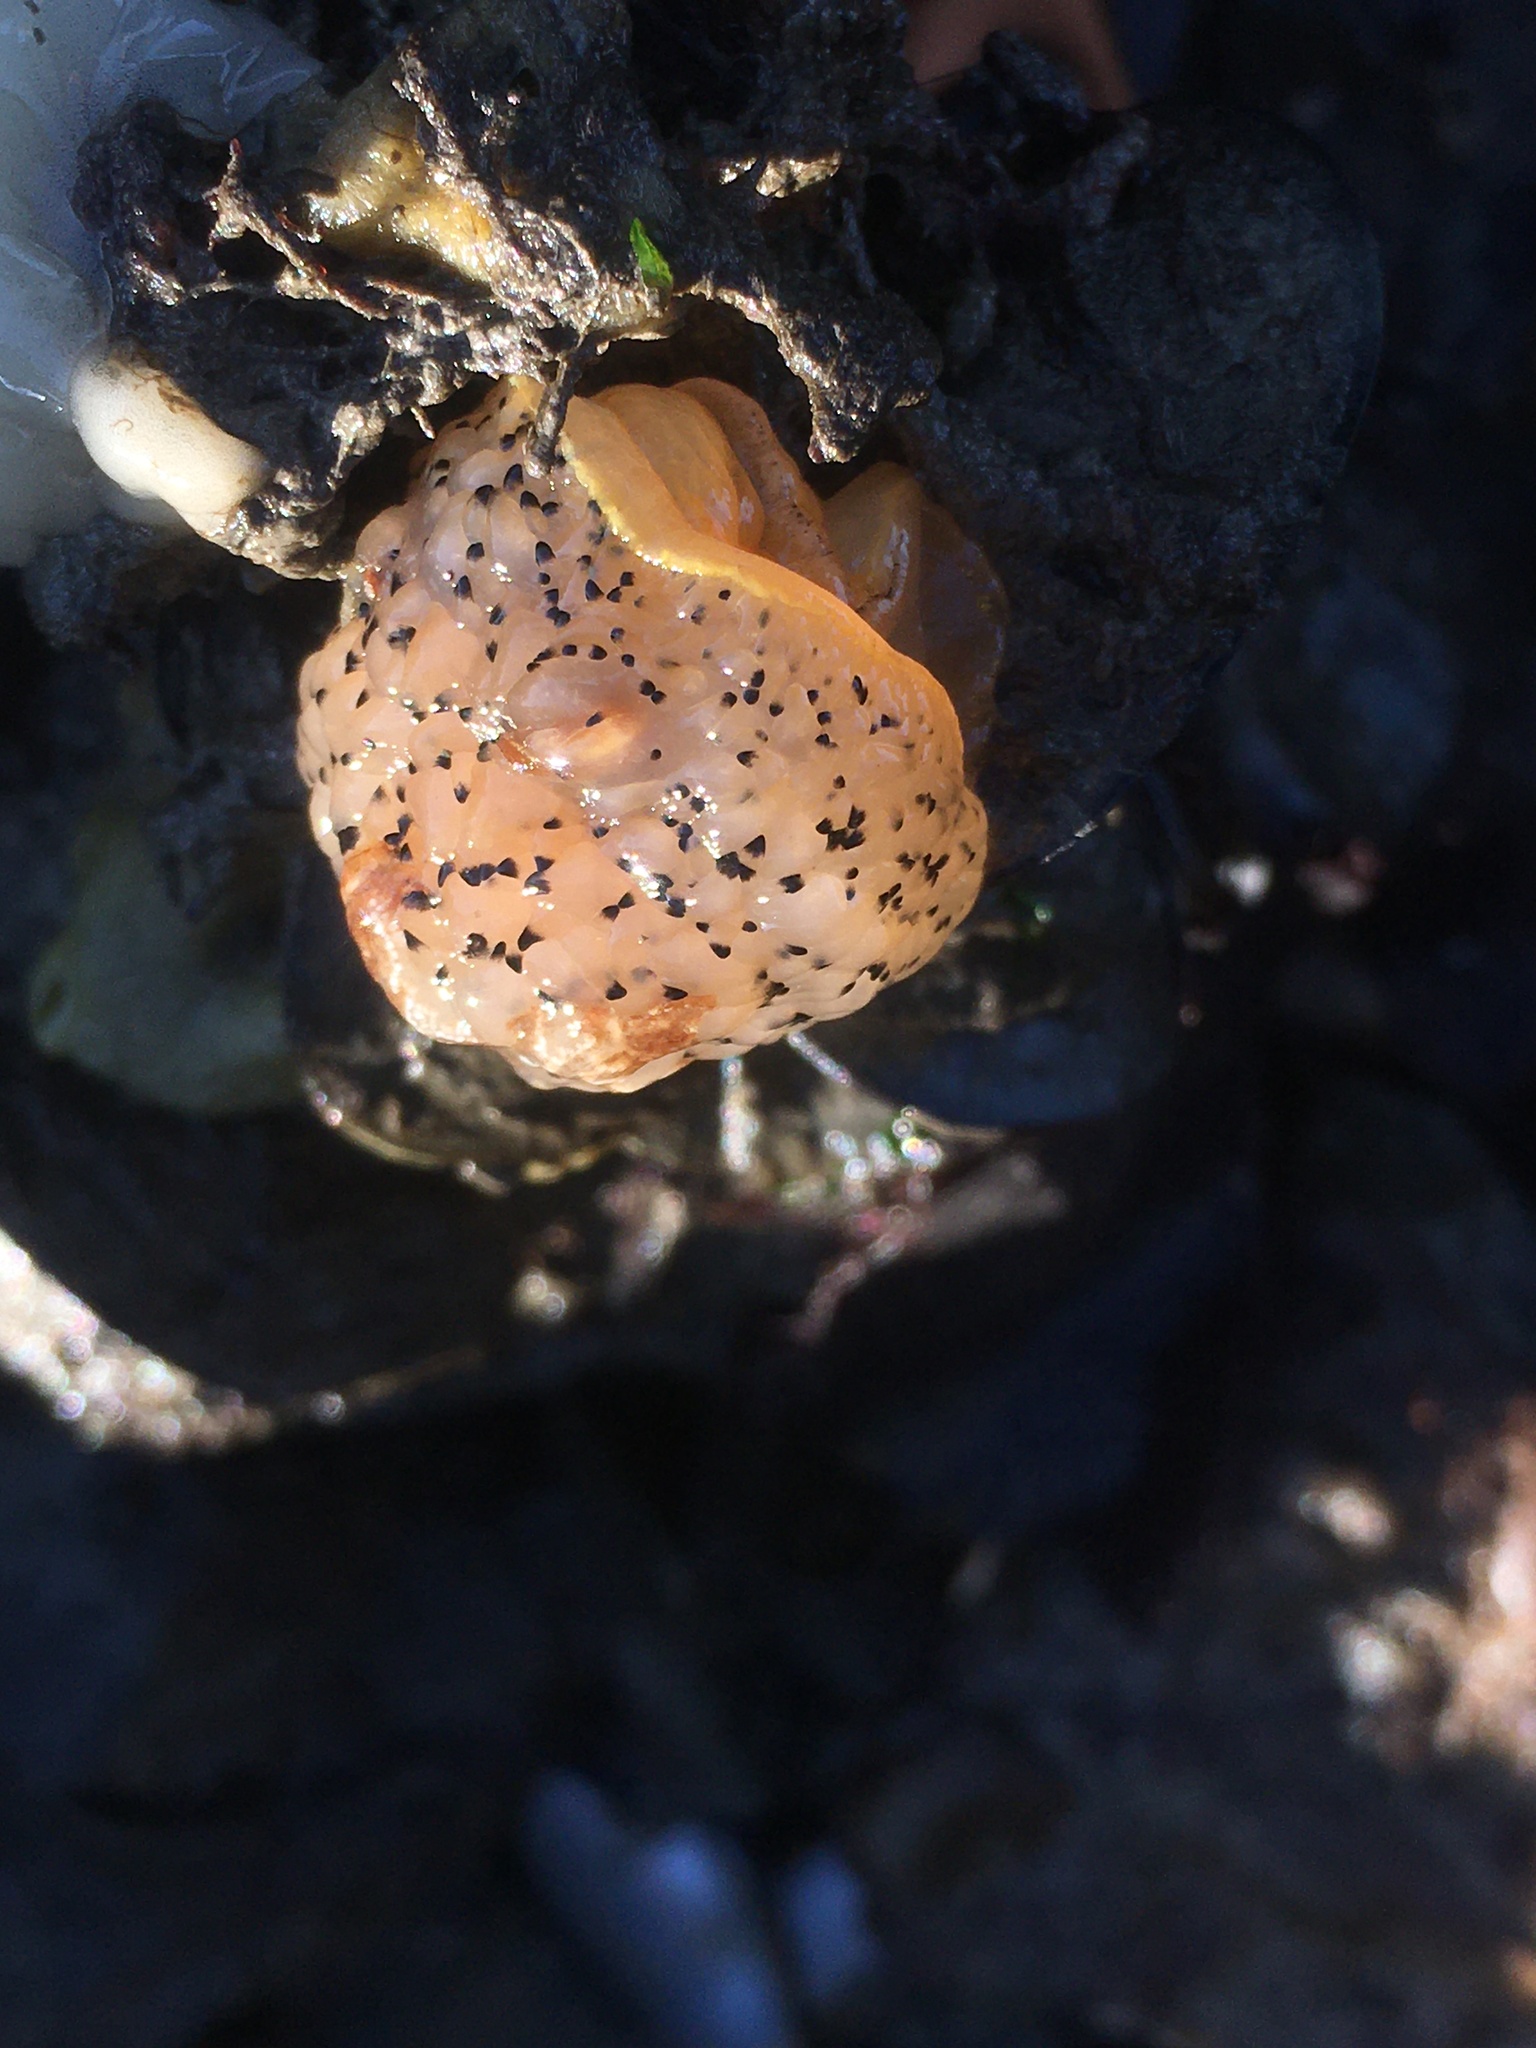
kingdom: Animalia
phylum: Mollusca
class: Gastropoda
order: Nudibranchia
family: Onchidorididae
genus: Acanthodoris
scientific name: Acanthodoris rhodoceras
